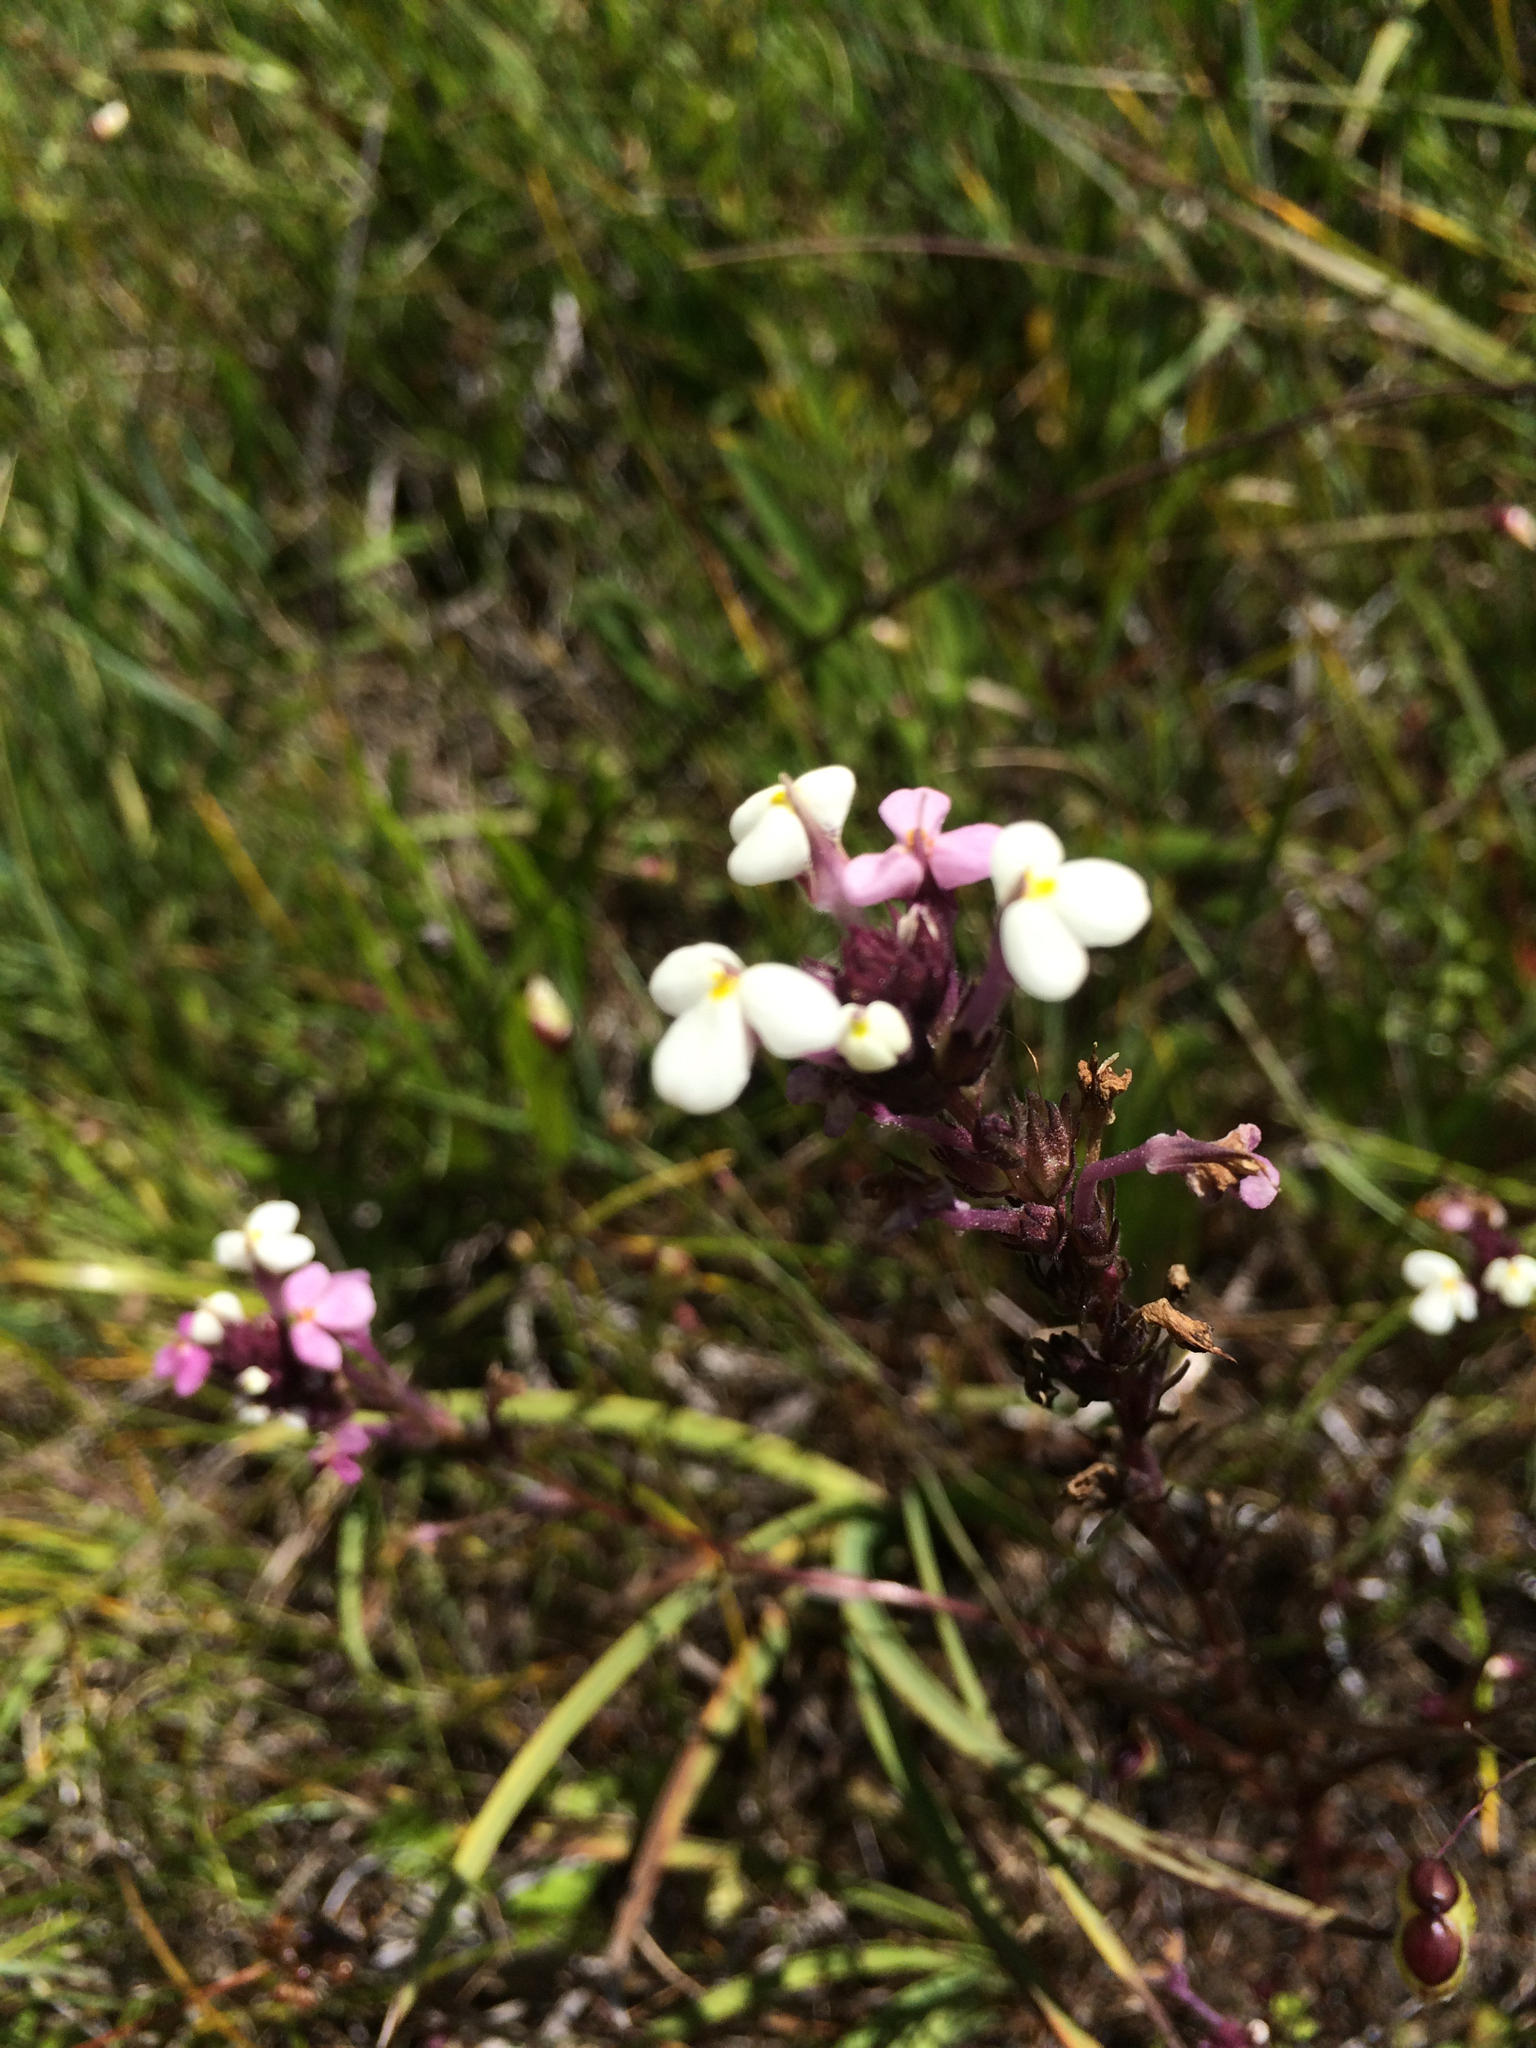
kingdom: Plantae
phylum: Tracheophyta
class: Magnoliopsida
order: Lamiales
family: Orobanchaceae
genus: Triphysaria
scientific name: Triphysaria versicolor
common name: Bearded false owl-clover
